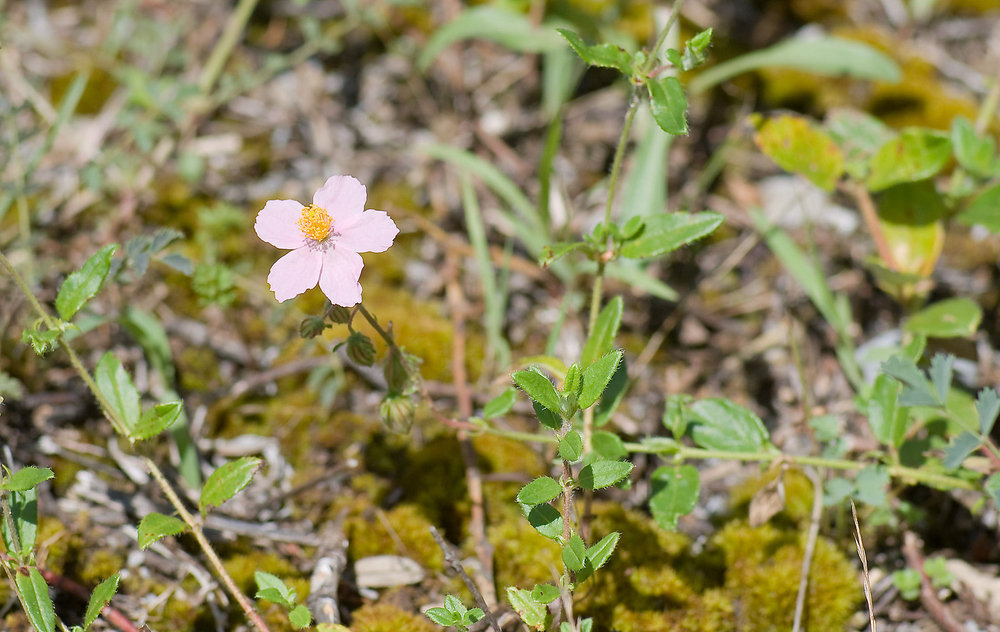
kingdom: Plantae
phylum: Tracheophyta
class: Magnoliopsida
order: Malvales
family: Cistaceae
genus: Helianthemum
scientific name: Helianthemum nummularium
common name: Common rock-rose
